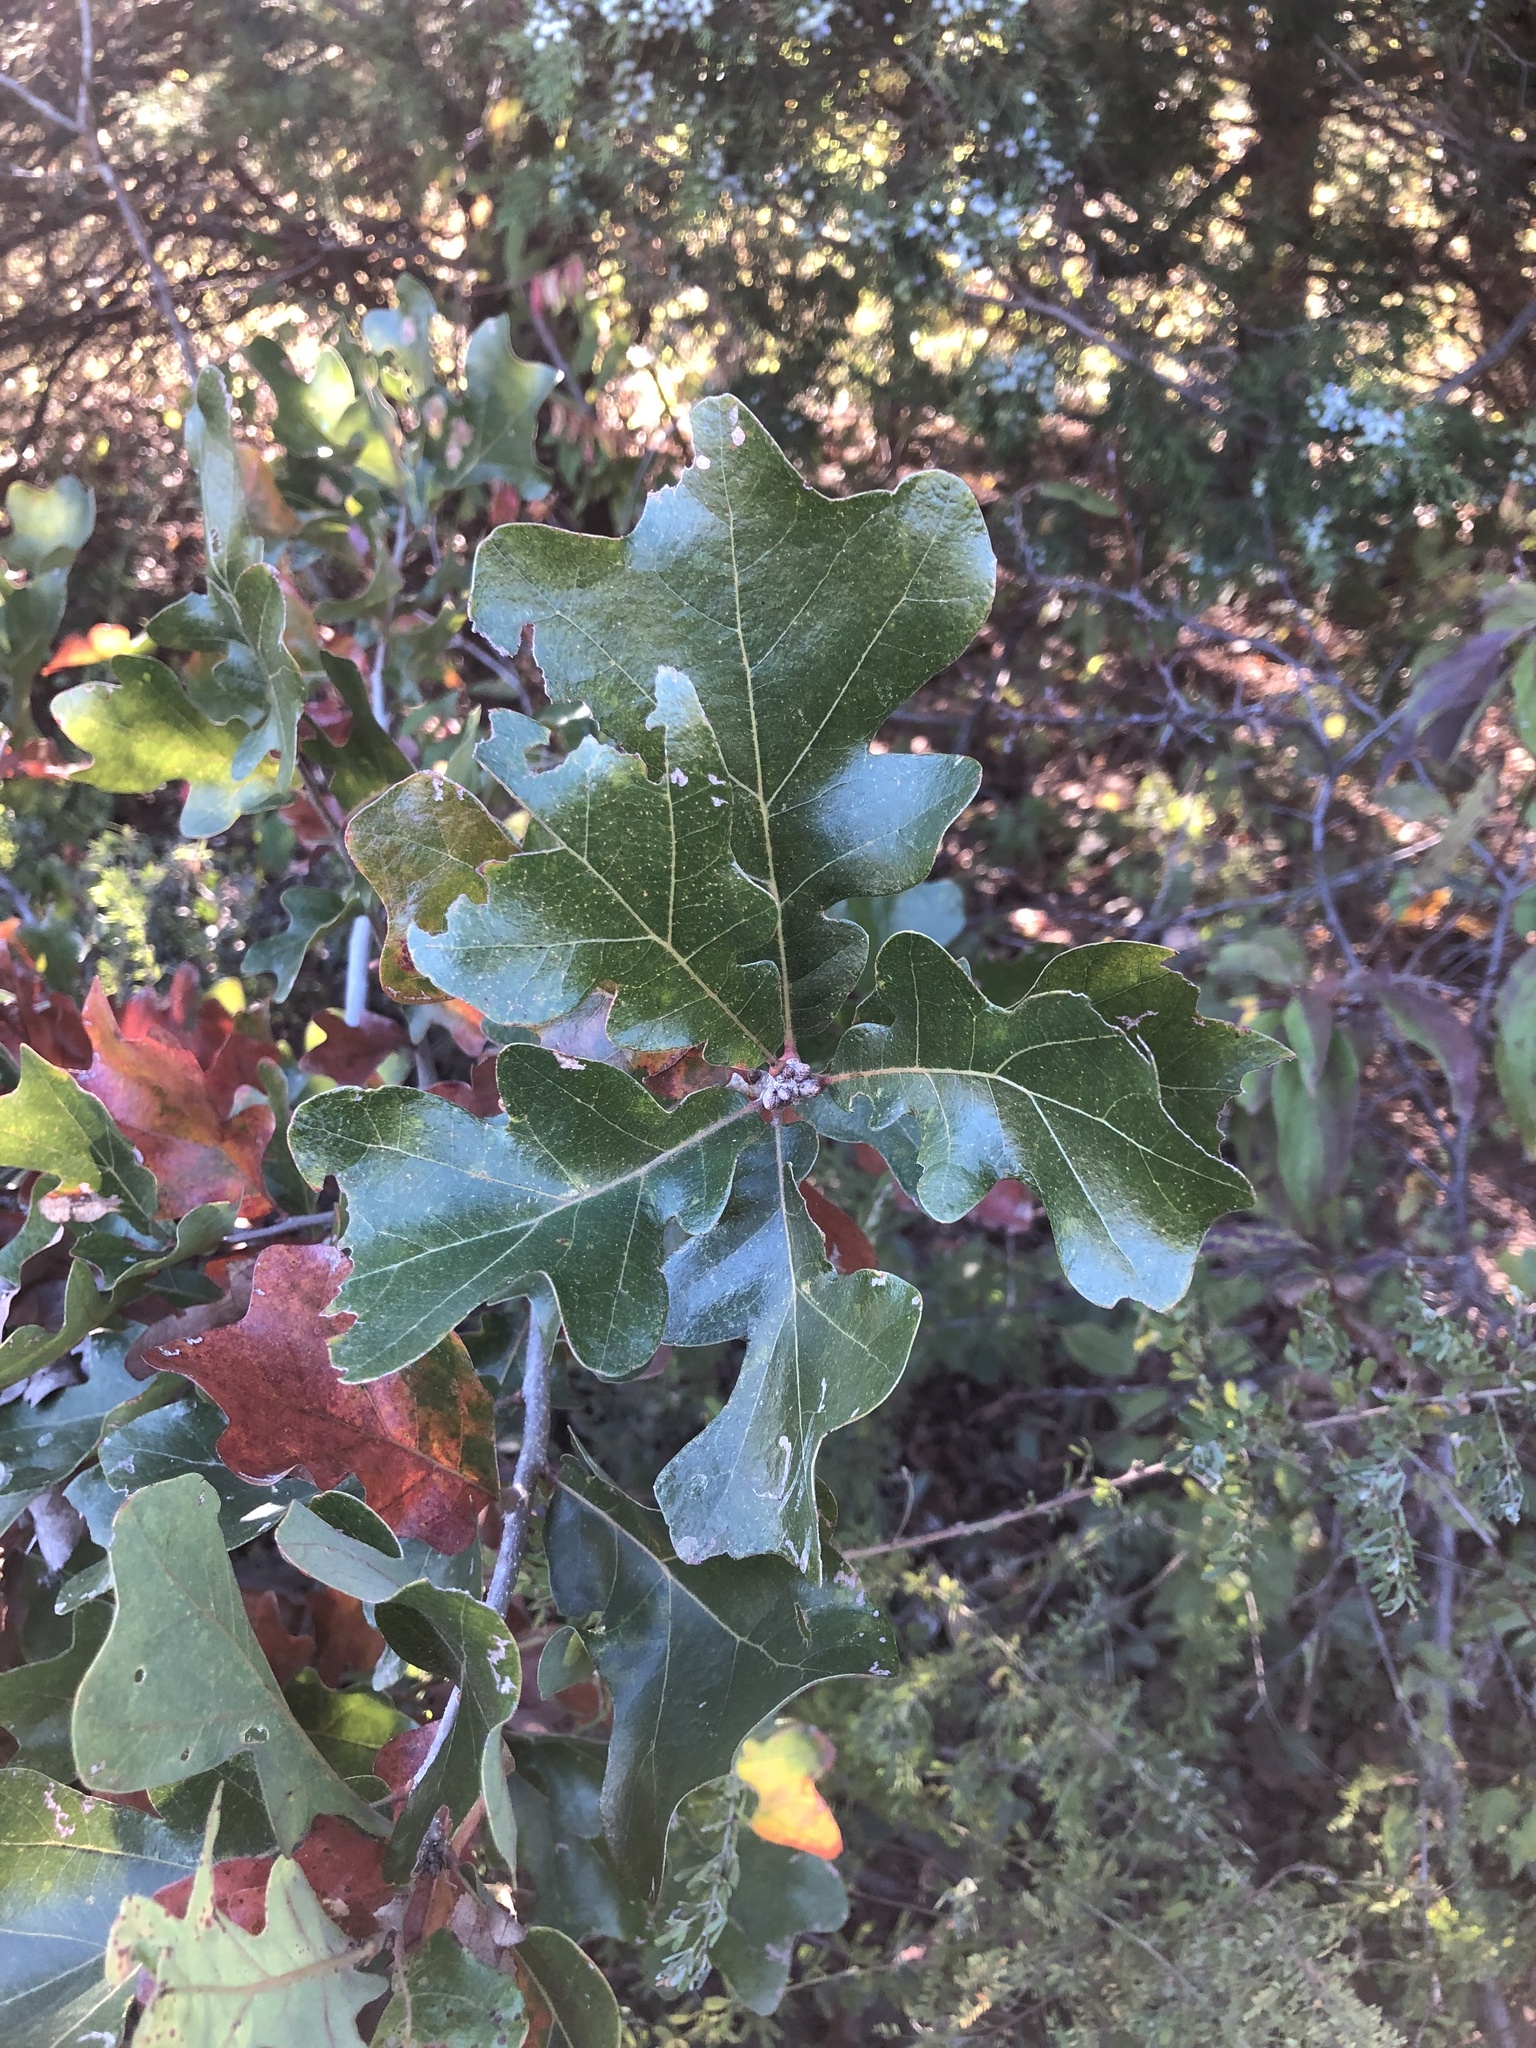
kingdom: Plantae
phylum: Tracheophyta
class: Magnoliopsida
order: Fagales
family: Fagaceae
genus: Quercus
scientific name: Quercus stellata
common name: Post oak
